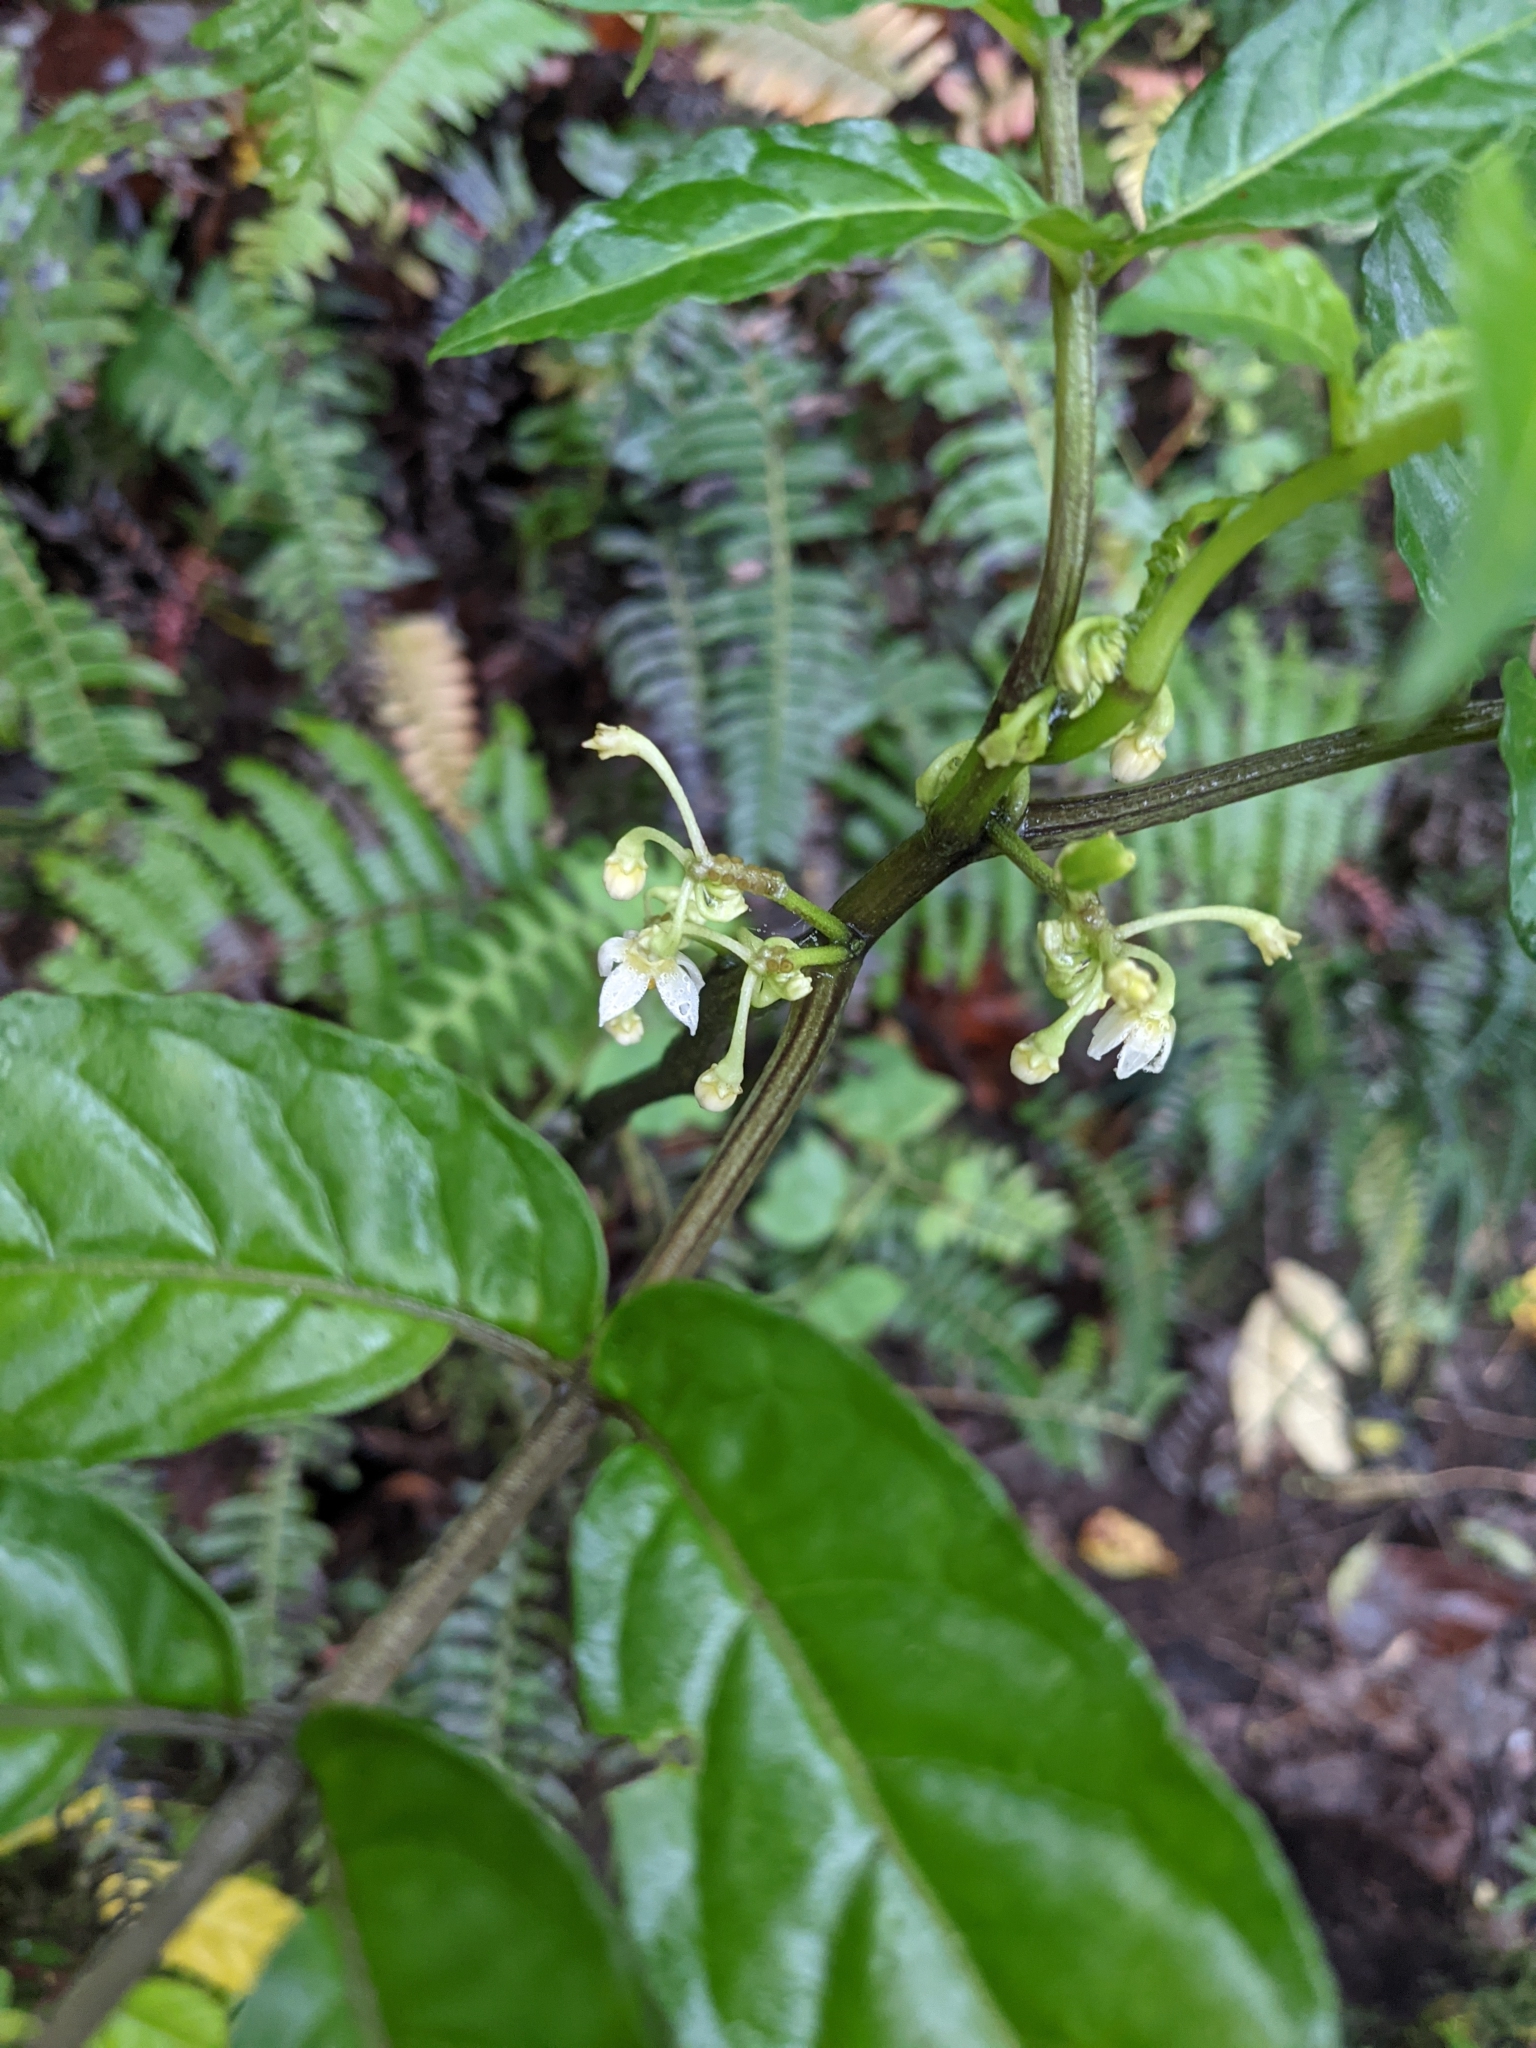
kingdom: Plantae
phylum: Tracheophyta
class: Magnoliopsida
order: Solanales
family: Solanaceae
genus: Solanum
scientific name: Solanum trizygum
